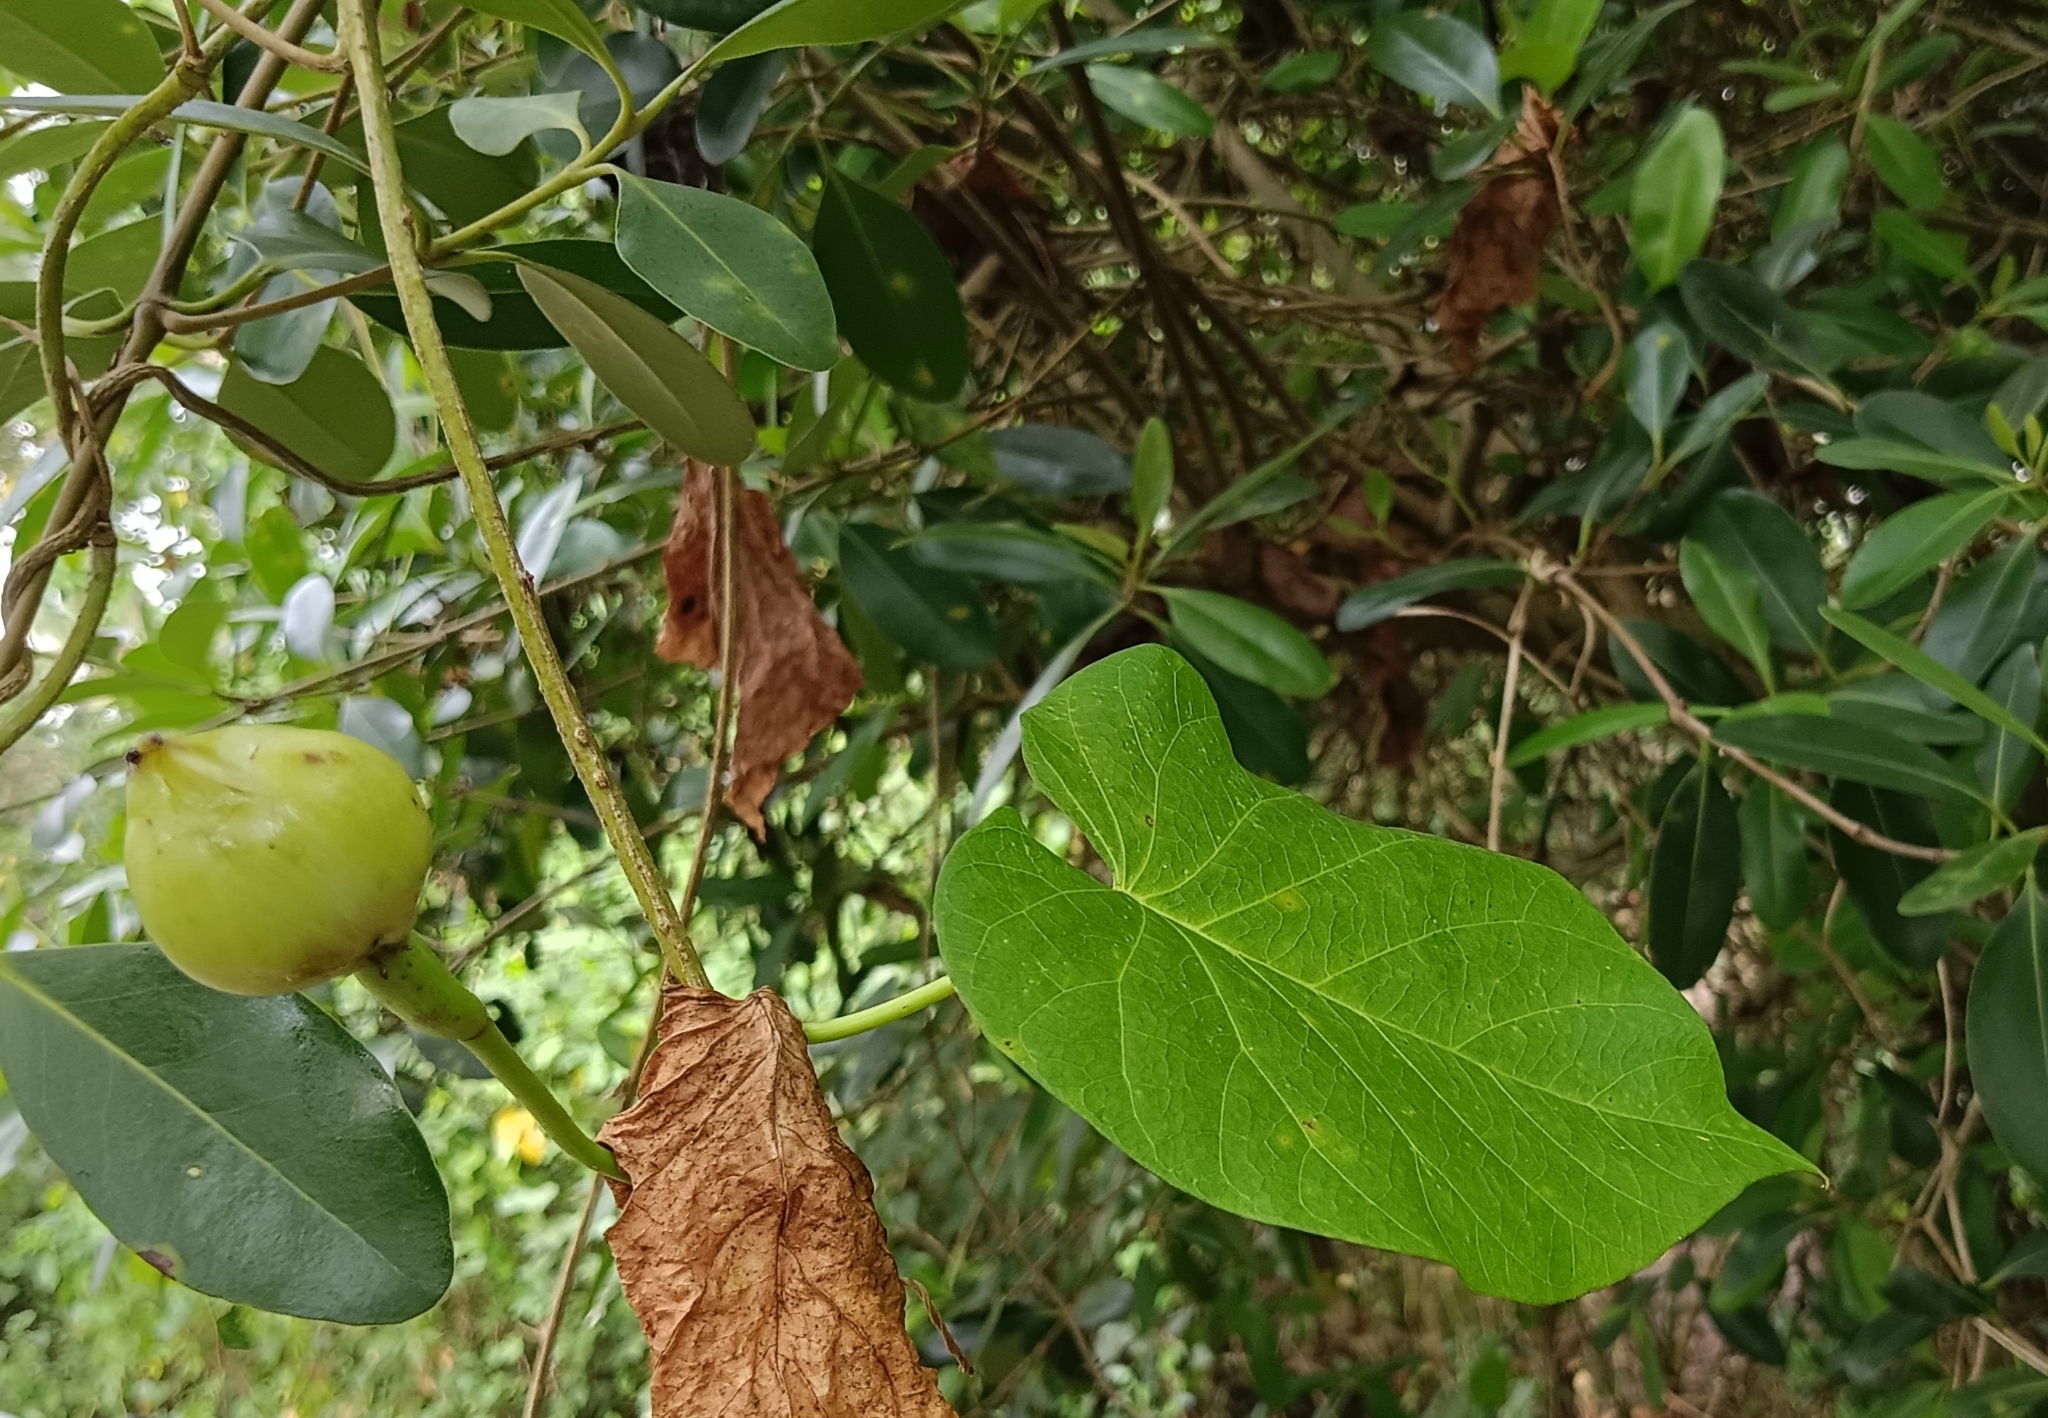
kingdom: Plantae
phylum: Tracheophyta
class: Magnoliopsida
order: Solanales
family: Convolvulaceae
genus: Ipomoea
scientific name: Ipomoea violacea
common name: Beach moonflower
